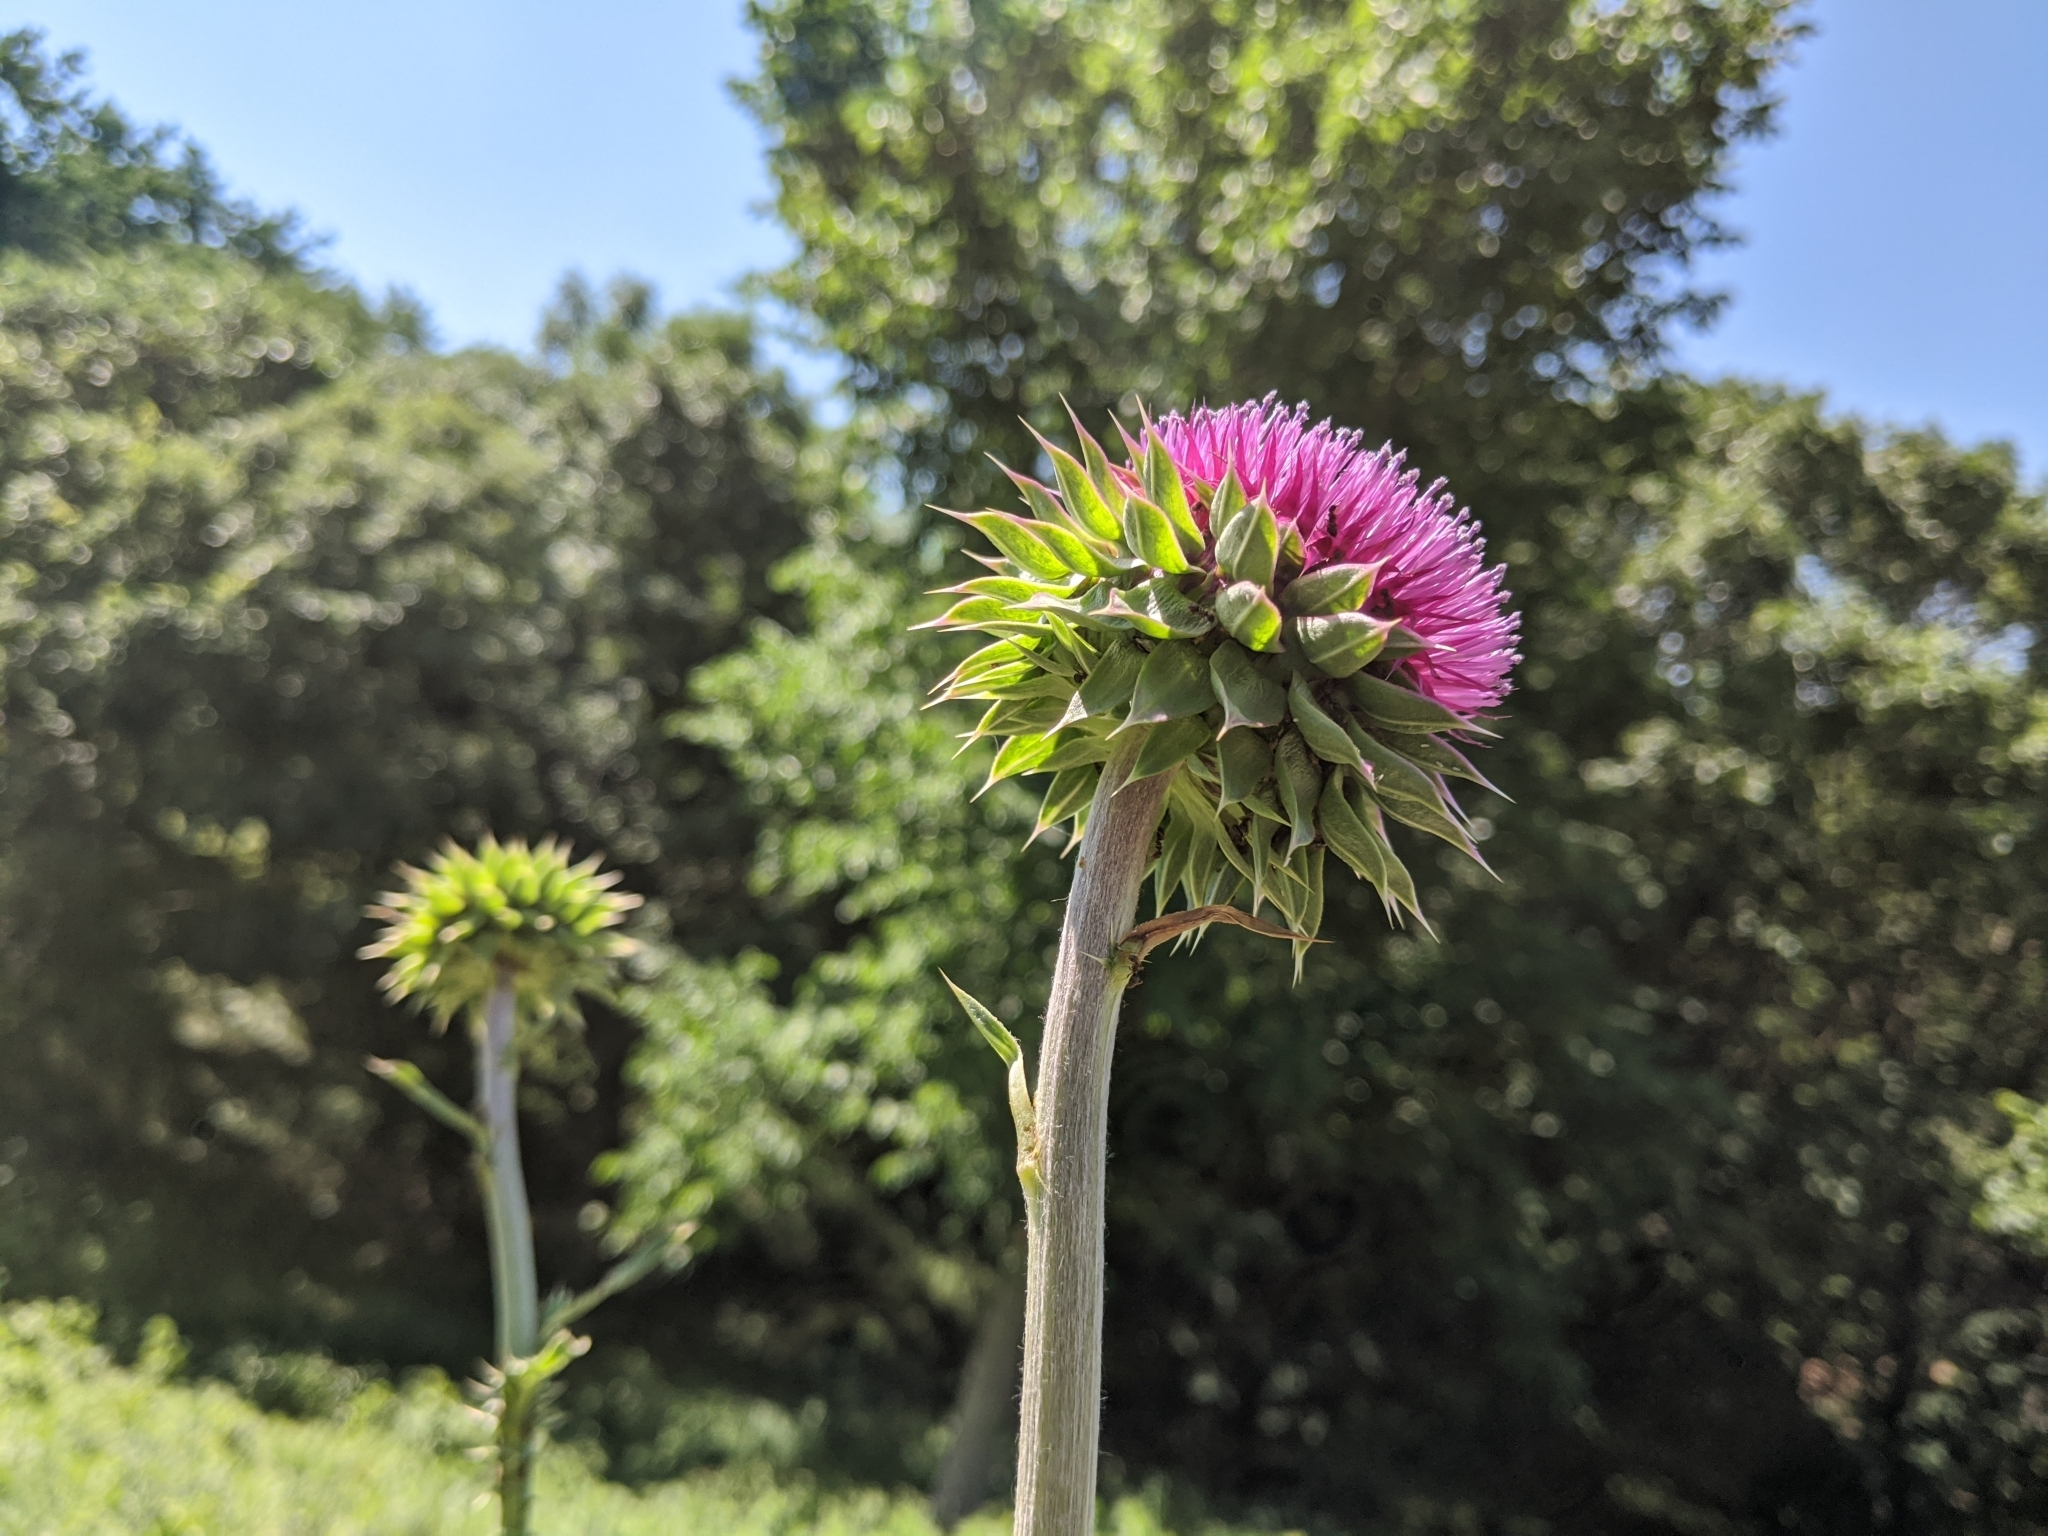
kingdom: Plantae
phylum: Tracheophyta
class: Magnoliopsida
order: Asterales
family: Asteraceae
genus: Carduus
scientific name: Carduus nutans
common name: Musk thistle
